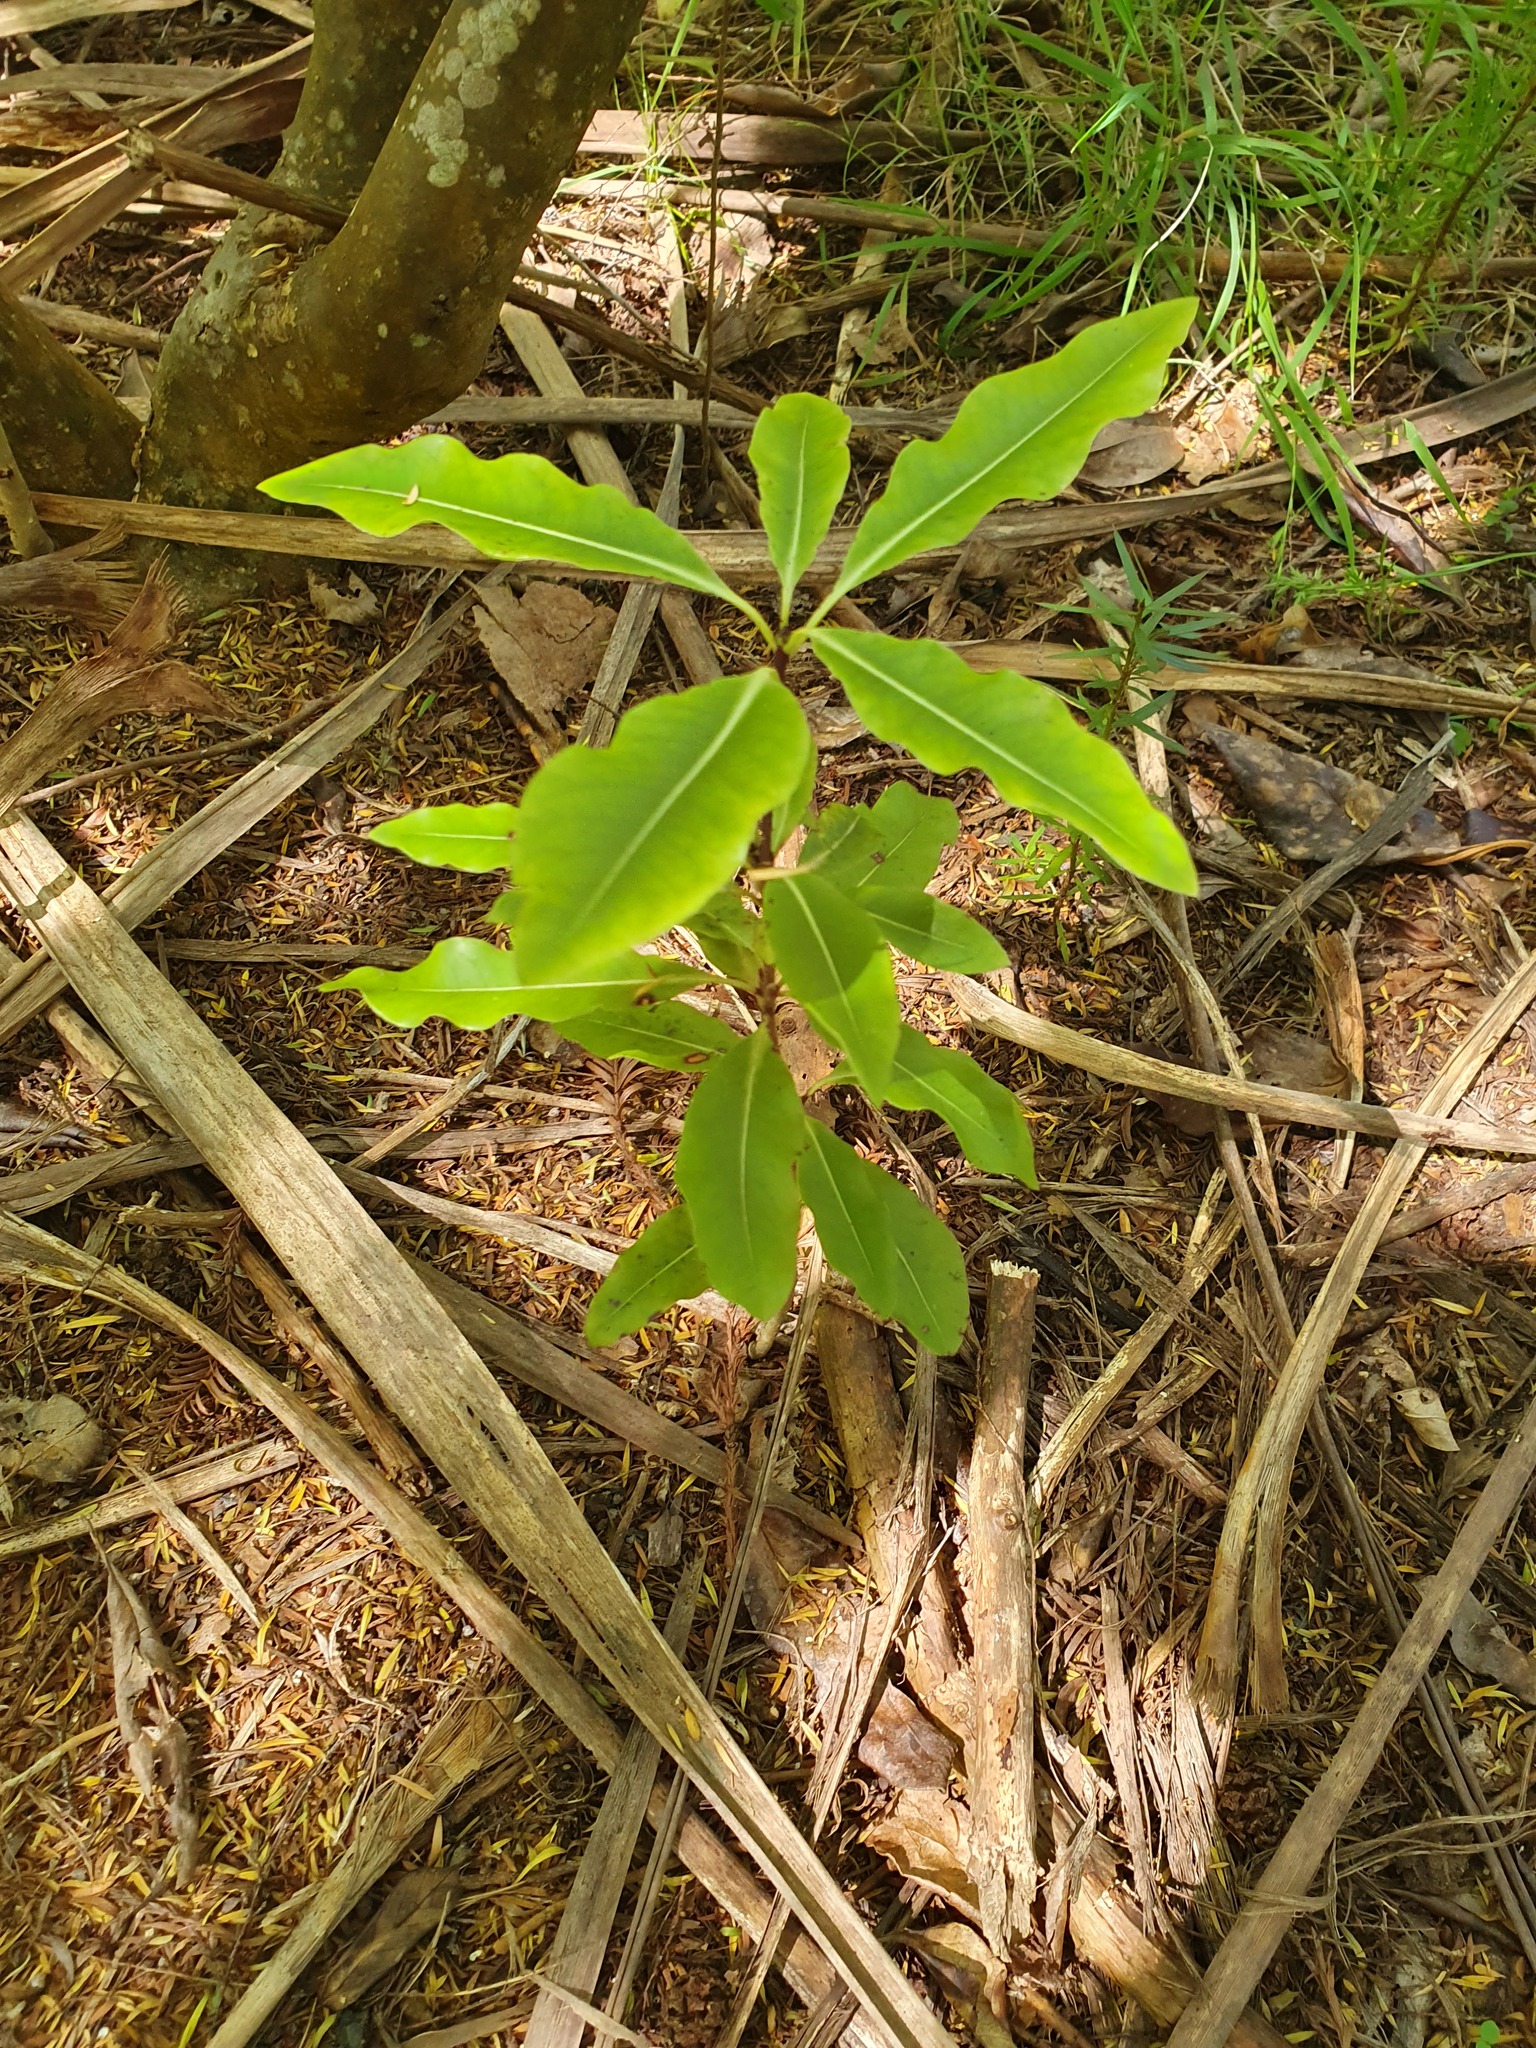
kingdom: Plantae
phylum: Tracheophyta
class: Magnoliopsida
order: Apiales
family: Pittosporaceae
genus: Pittosporum
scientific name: Pittosporum eugenioides
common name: Lemonwood
